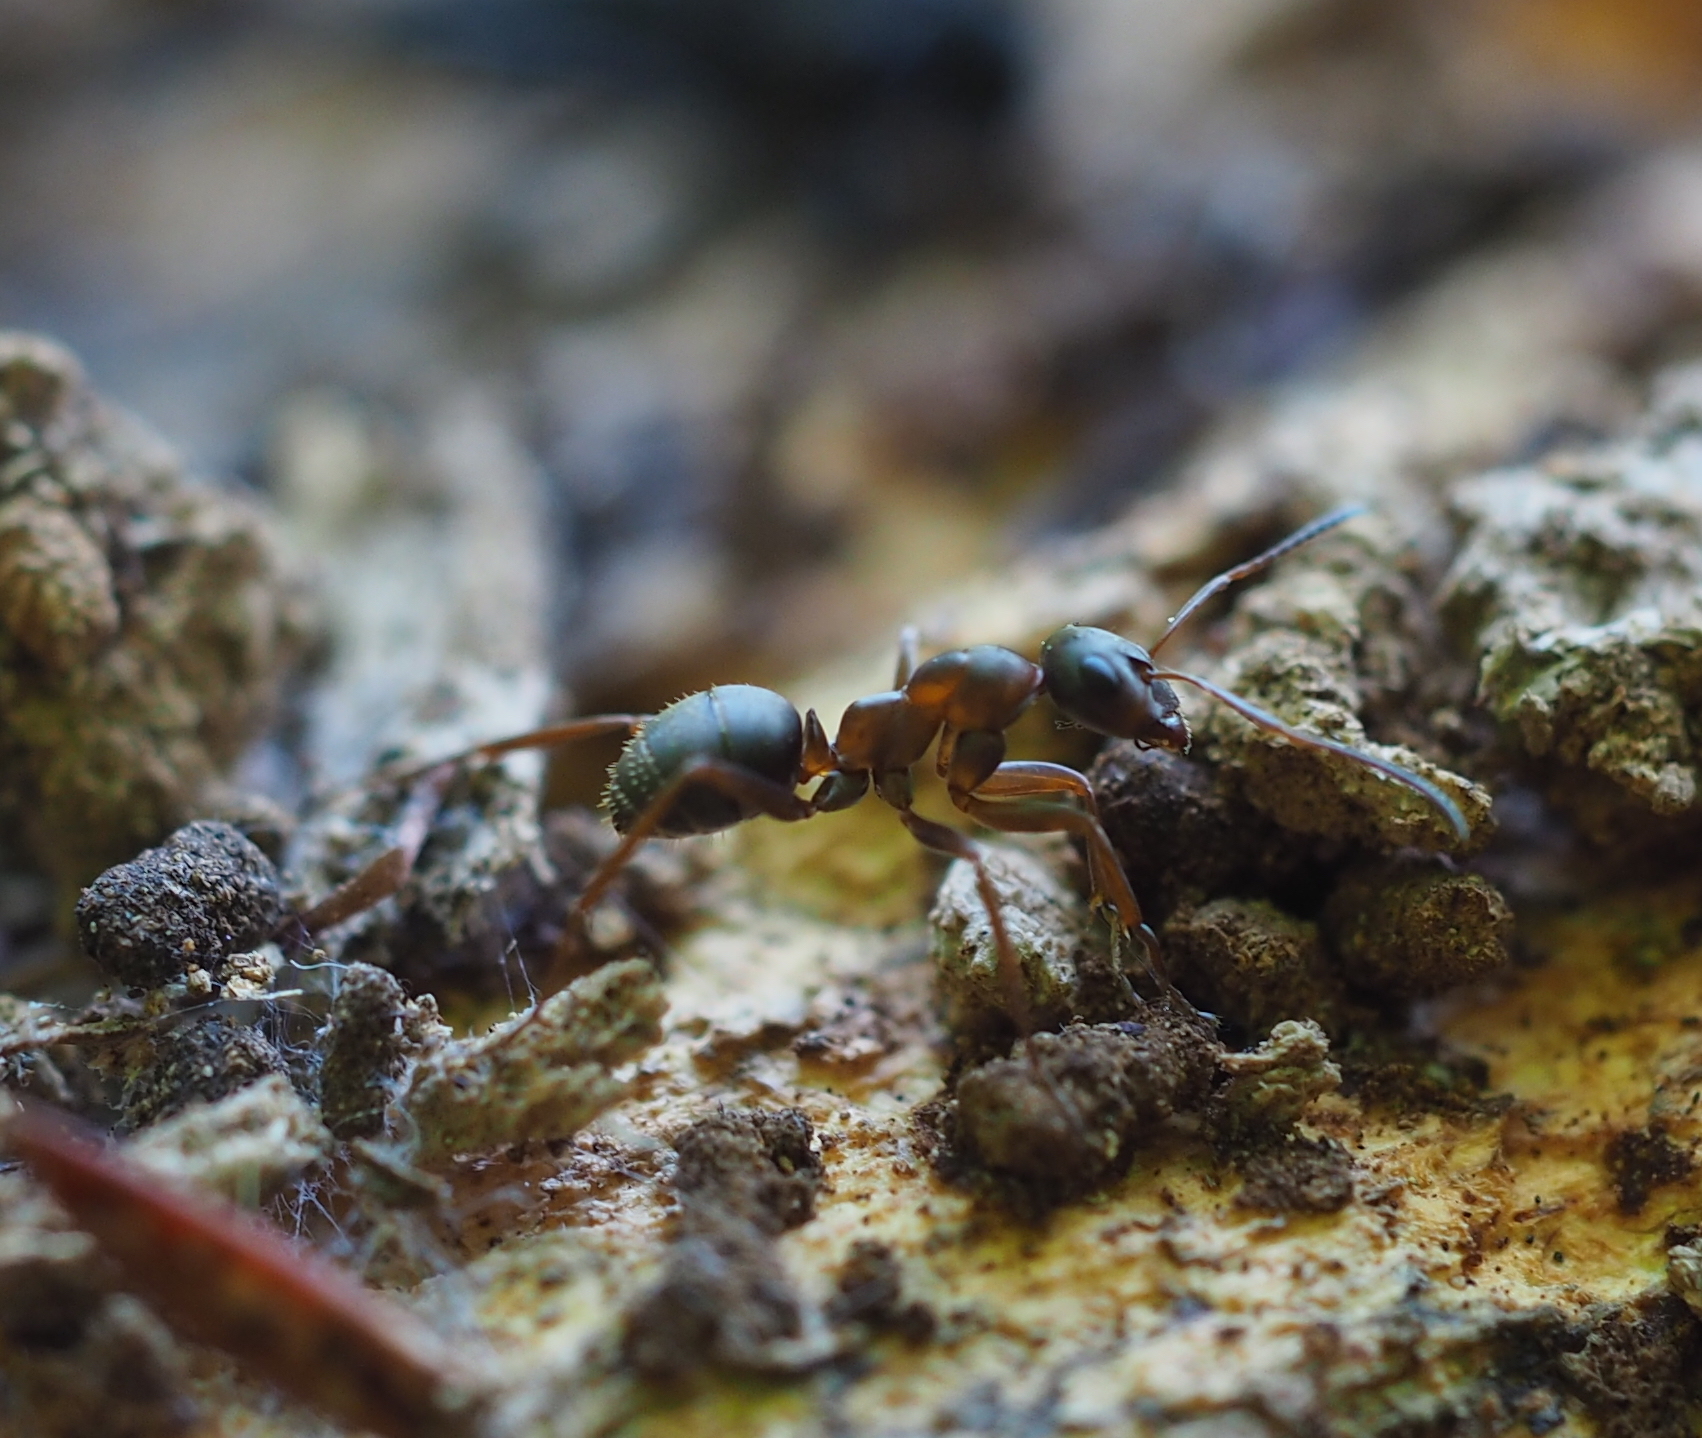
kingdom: Animalia
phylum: Arthropoda
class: Insecta
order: Hymenoptera
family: Formicidae
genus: Formica
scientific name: Formica cunicularia
